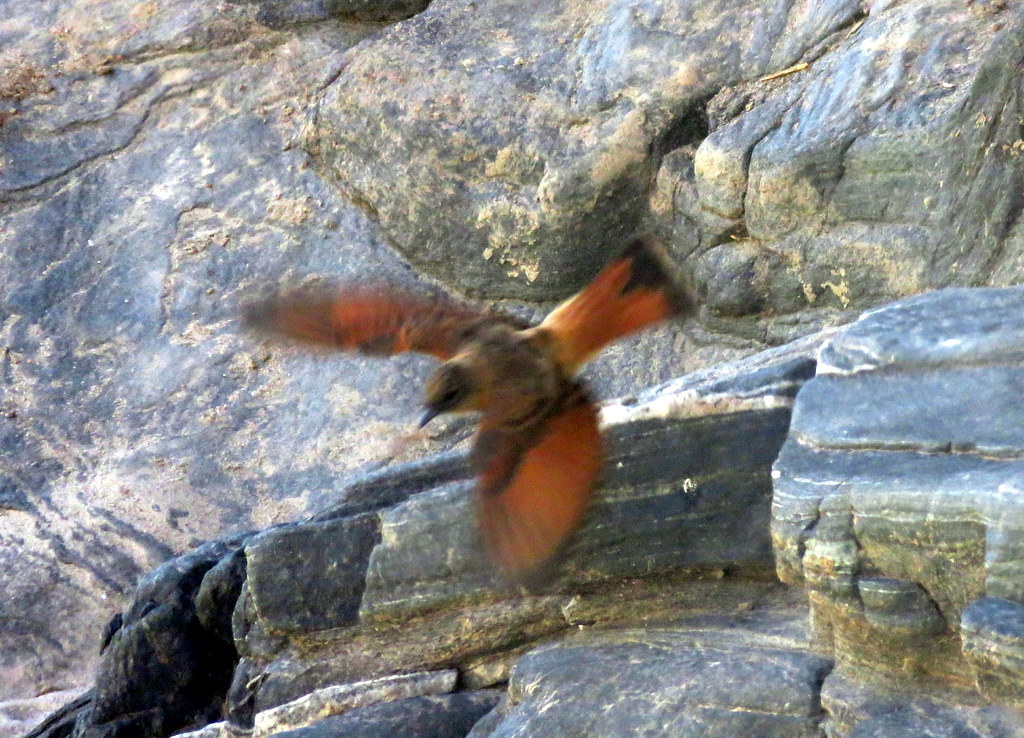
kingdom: Animalia
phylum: Chordata
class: Aves
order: Passeriformes
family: Tyrannidae
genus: Hirundinea
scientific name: Hirundinea ferruginea
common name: Cliff flycatcher
